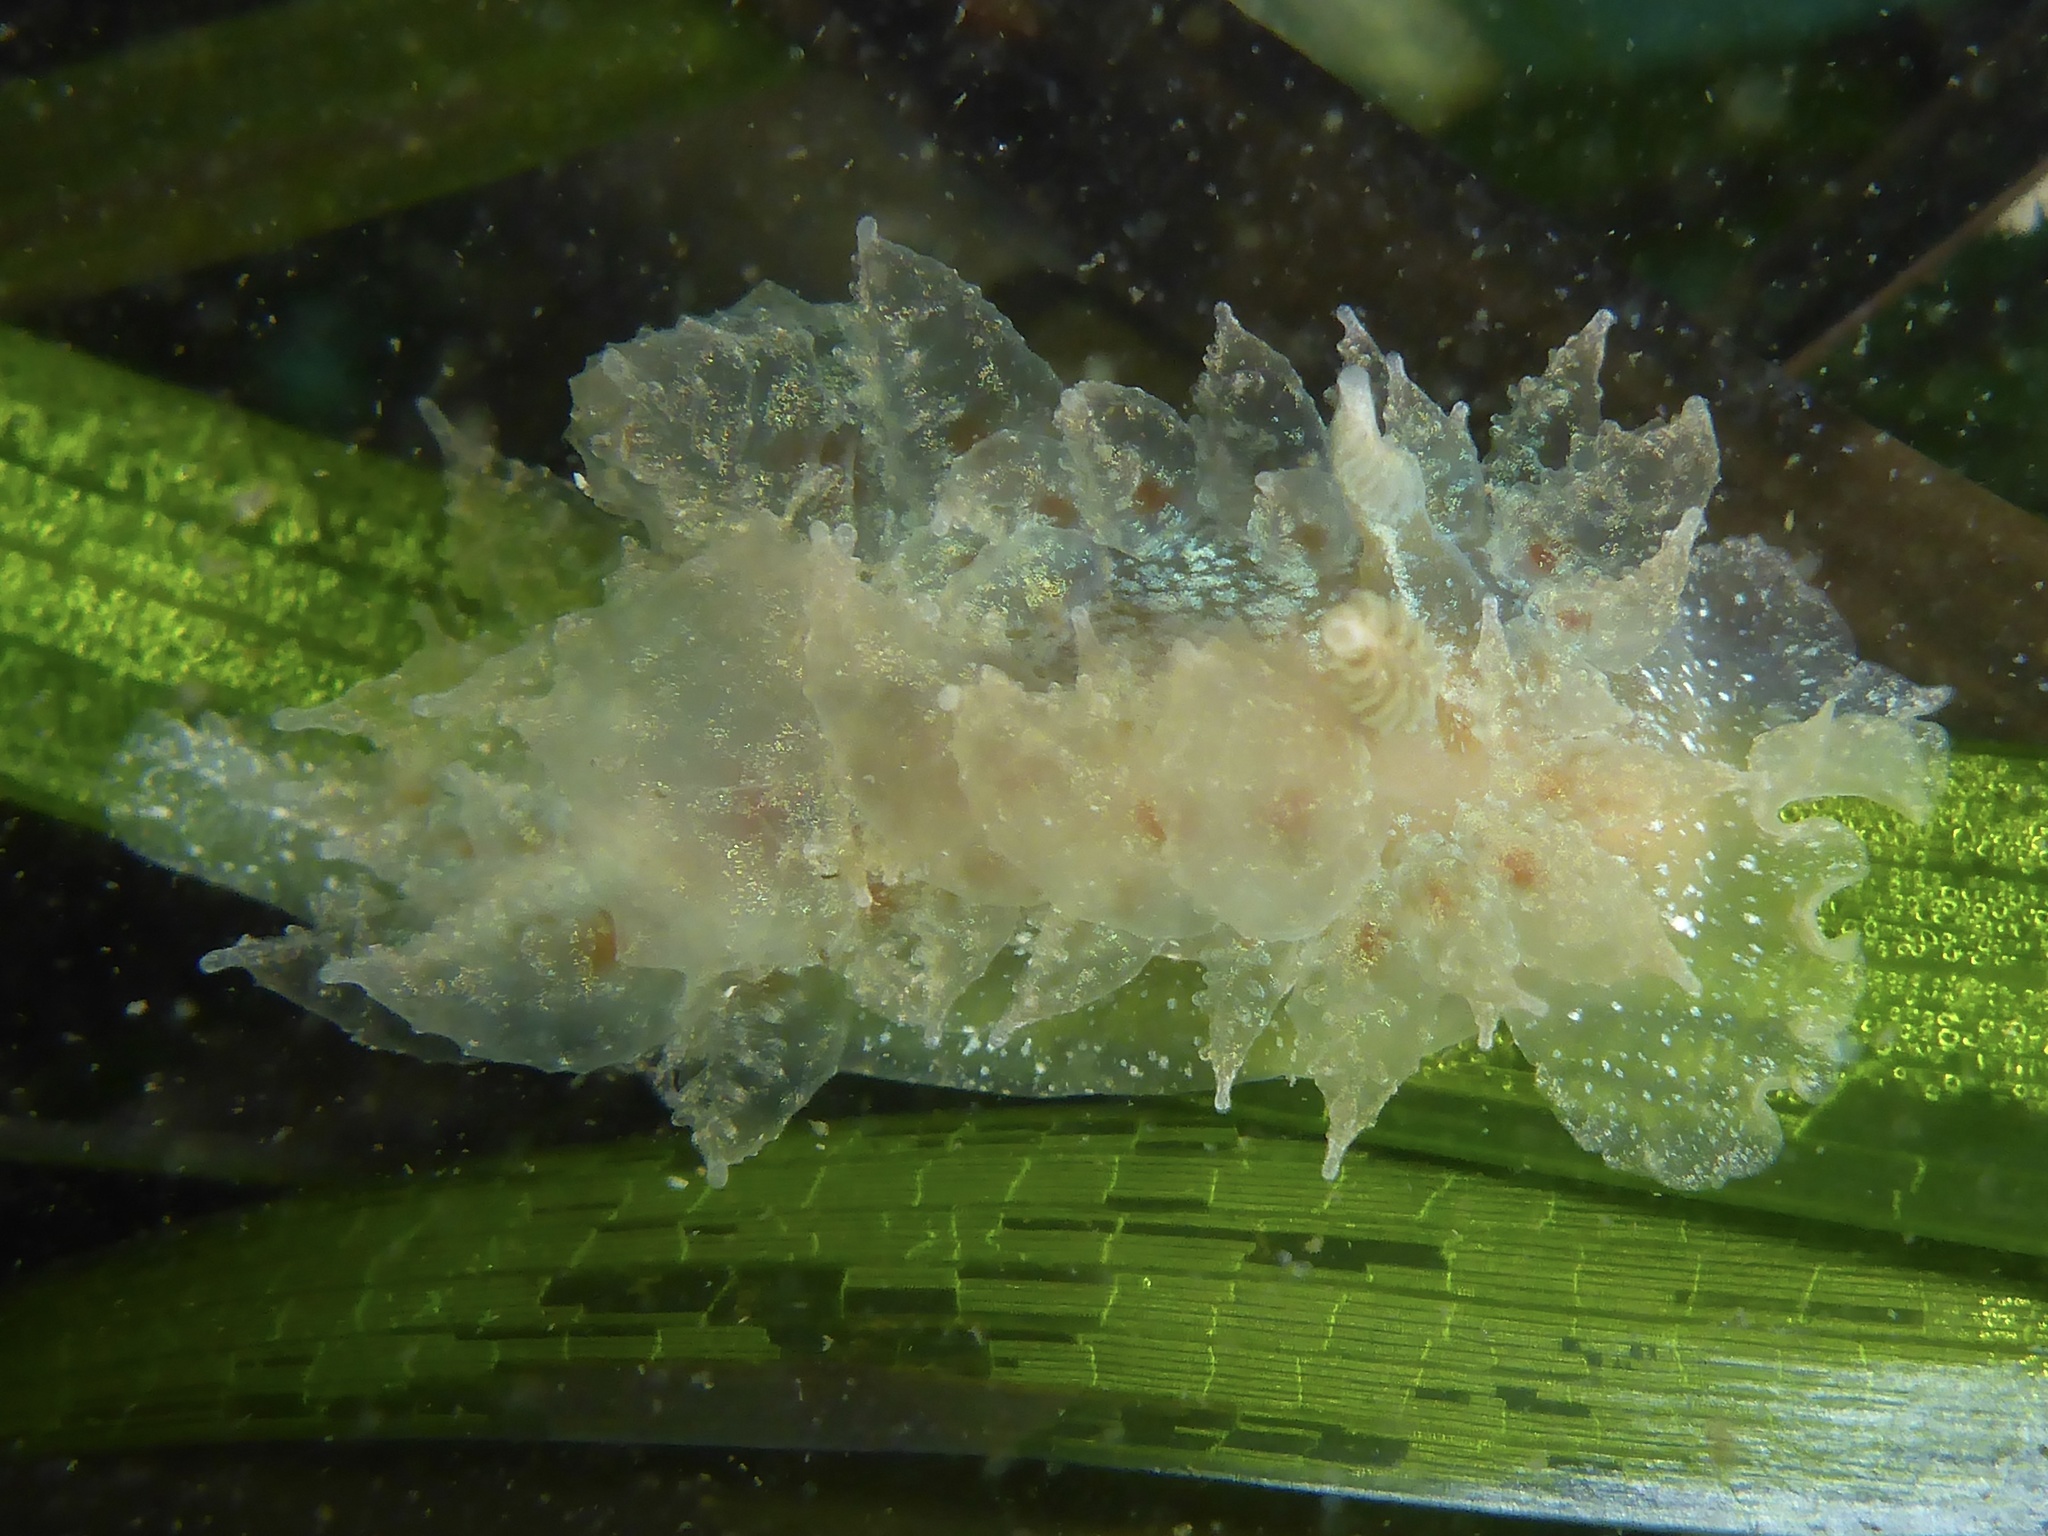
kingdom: Animalia
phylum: Mollusca
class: Gastropoda
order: Nudibranchia
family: Dironidae
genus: Dirona
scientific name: Dirona picta
